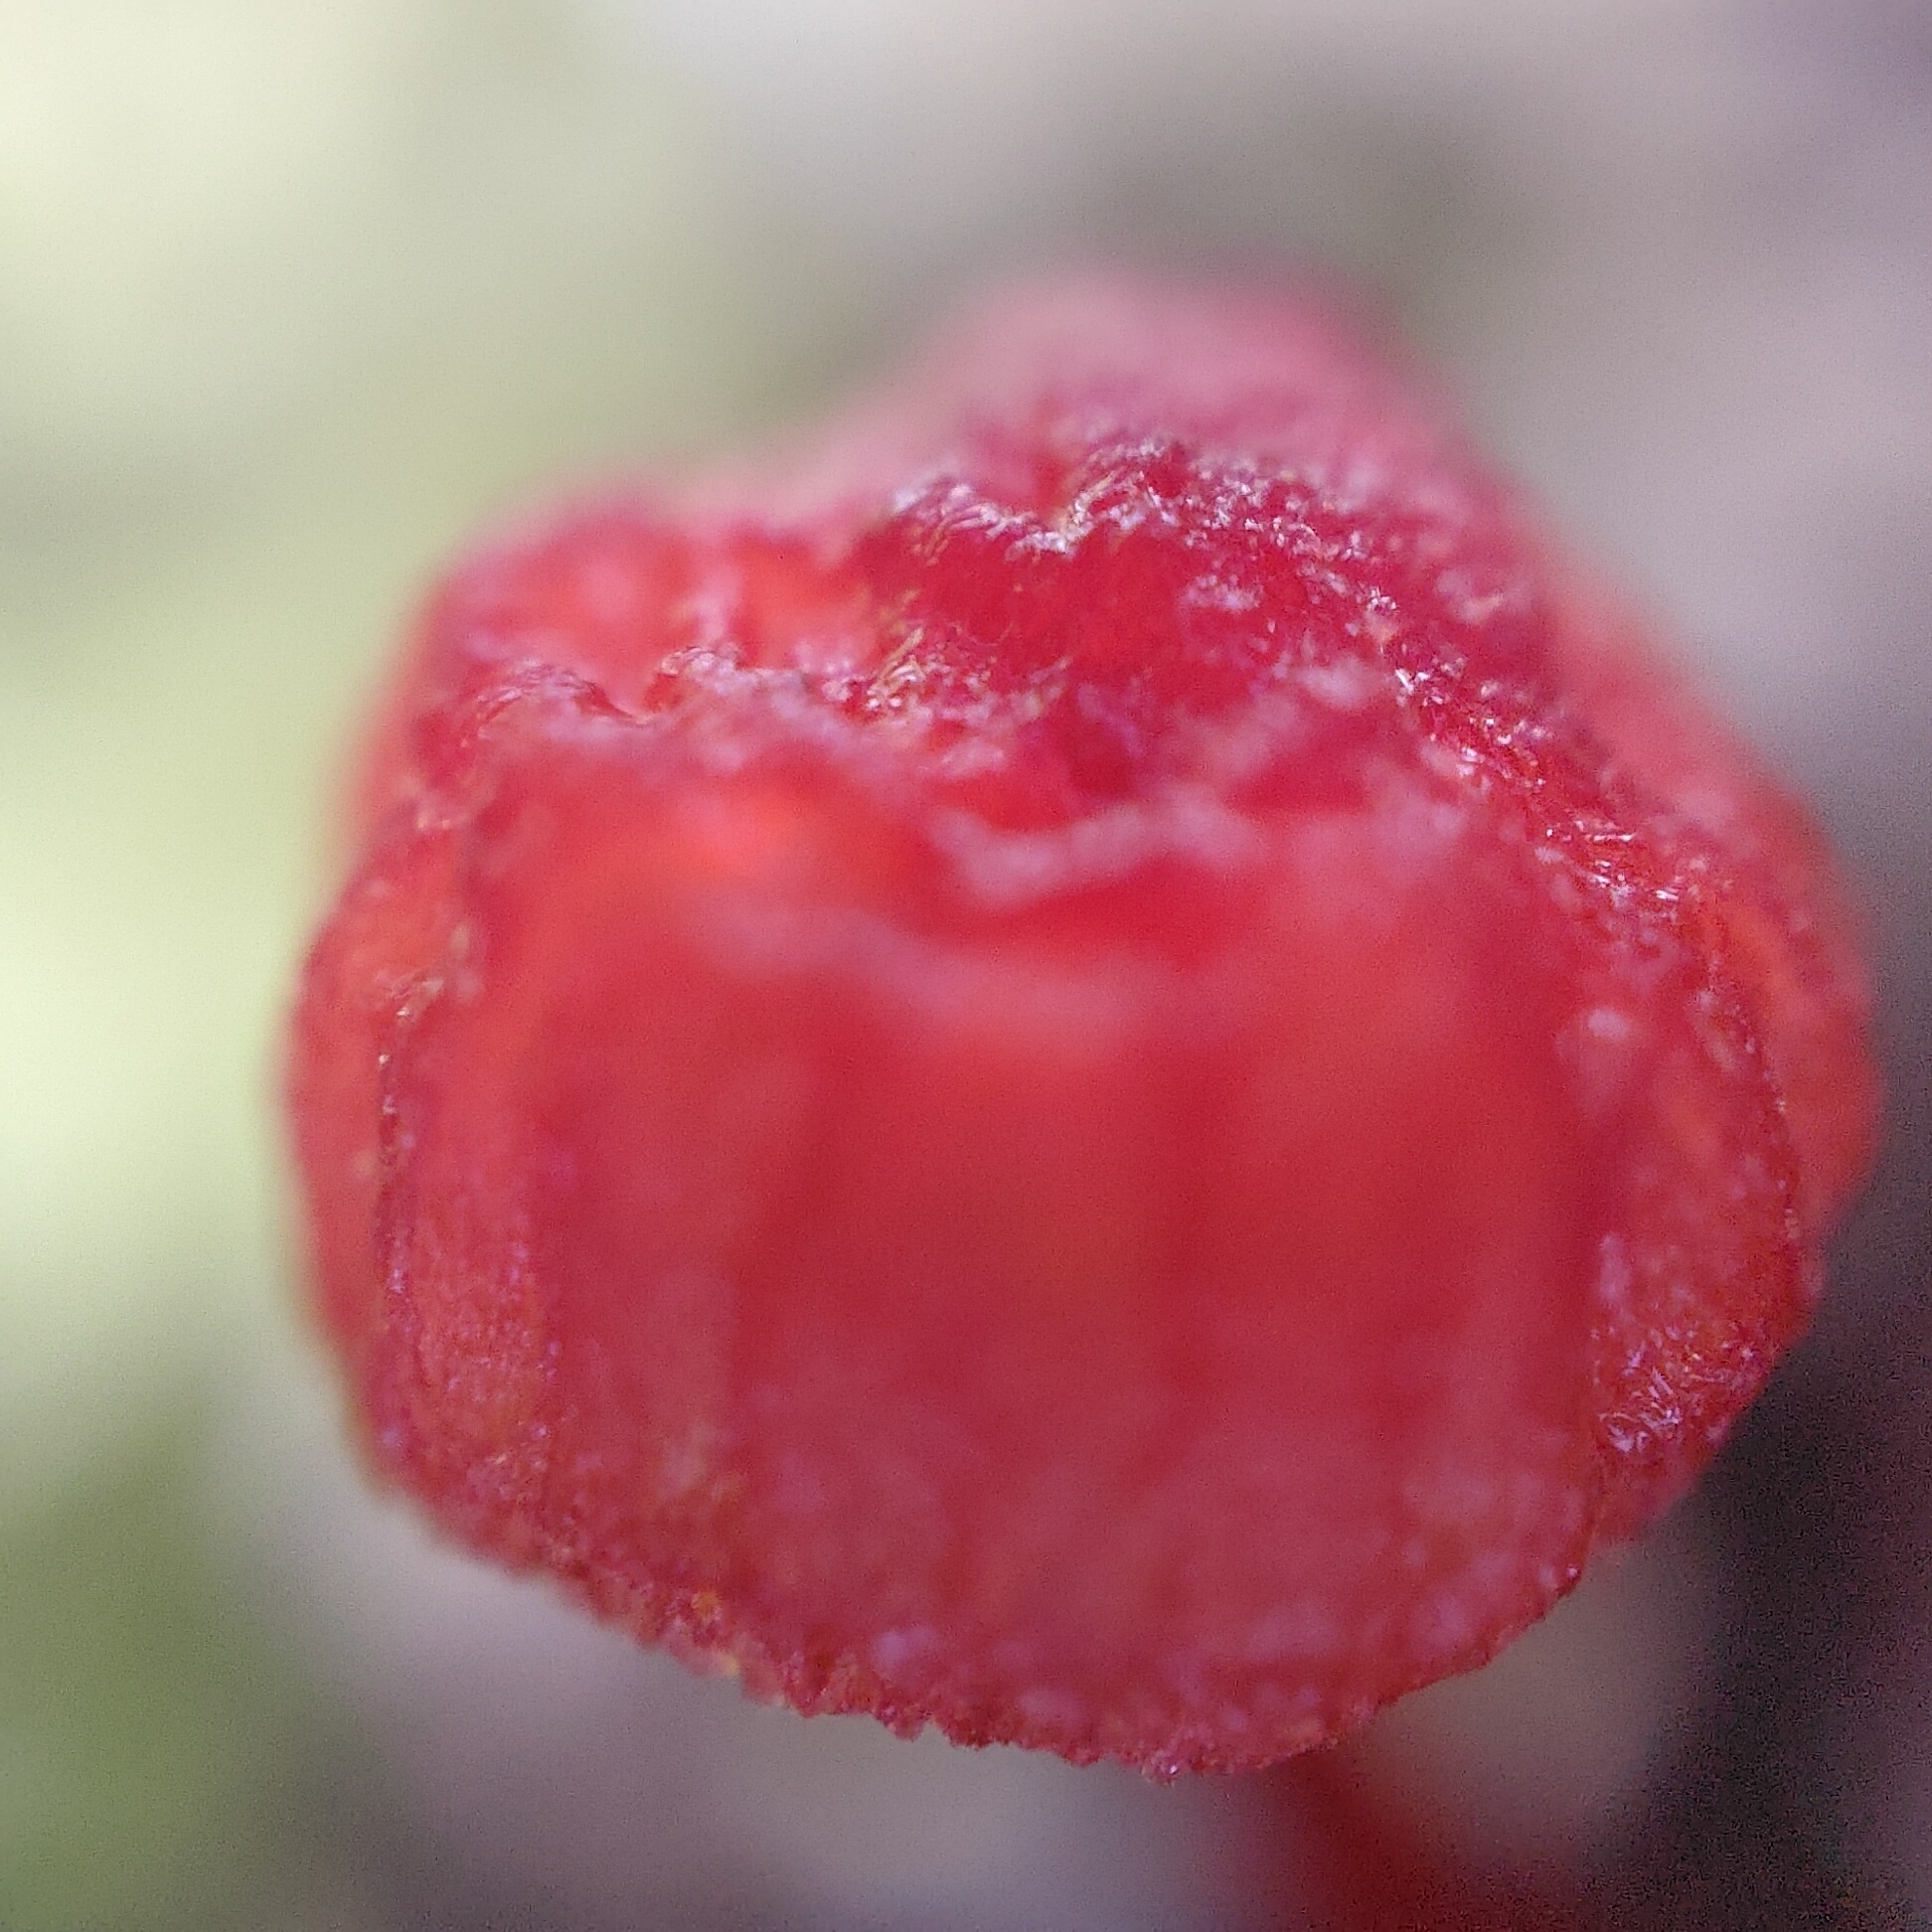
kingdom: Fungi
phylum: Basidiomycota
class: Agaricomycetes
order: Agaricales
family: Mycenaceae
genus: Cruentomycena
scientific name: Cruentomycena viscidocruenta
